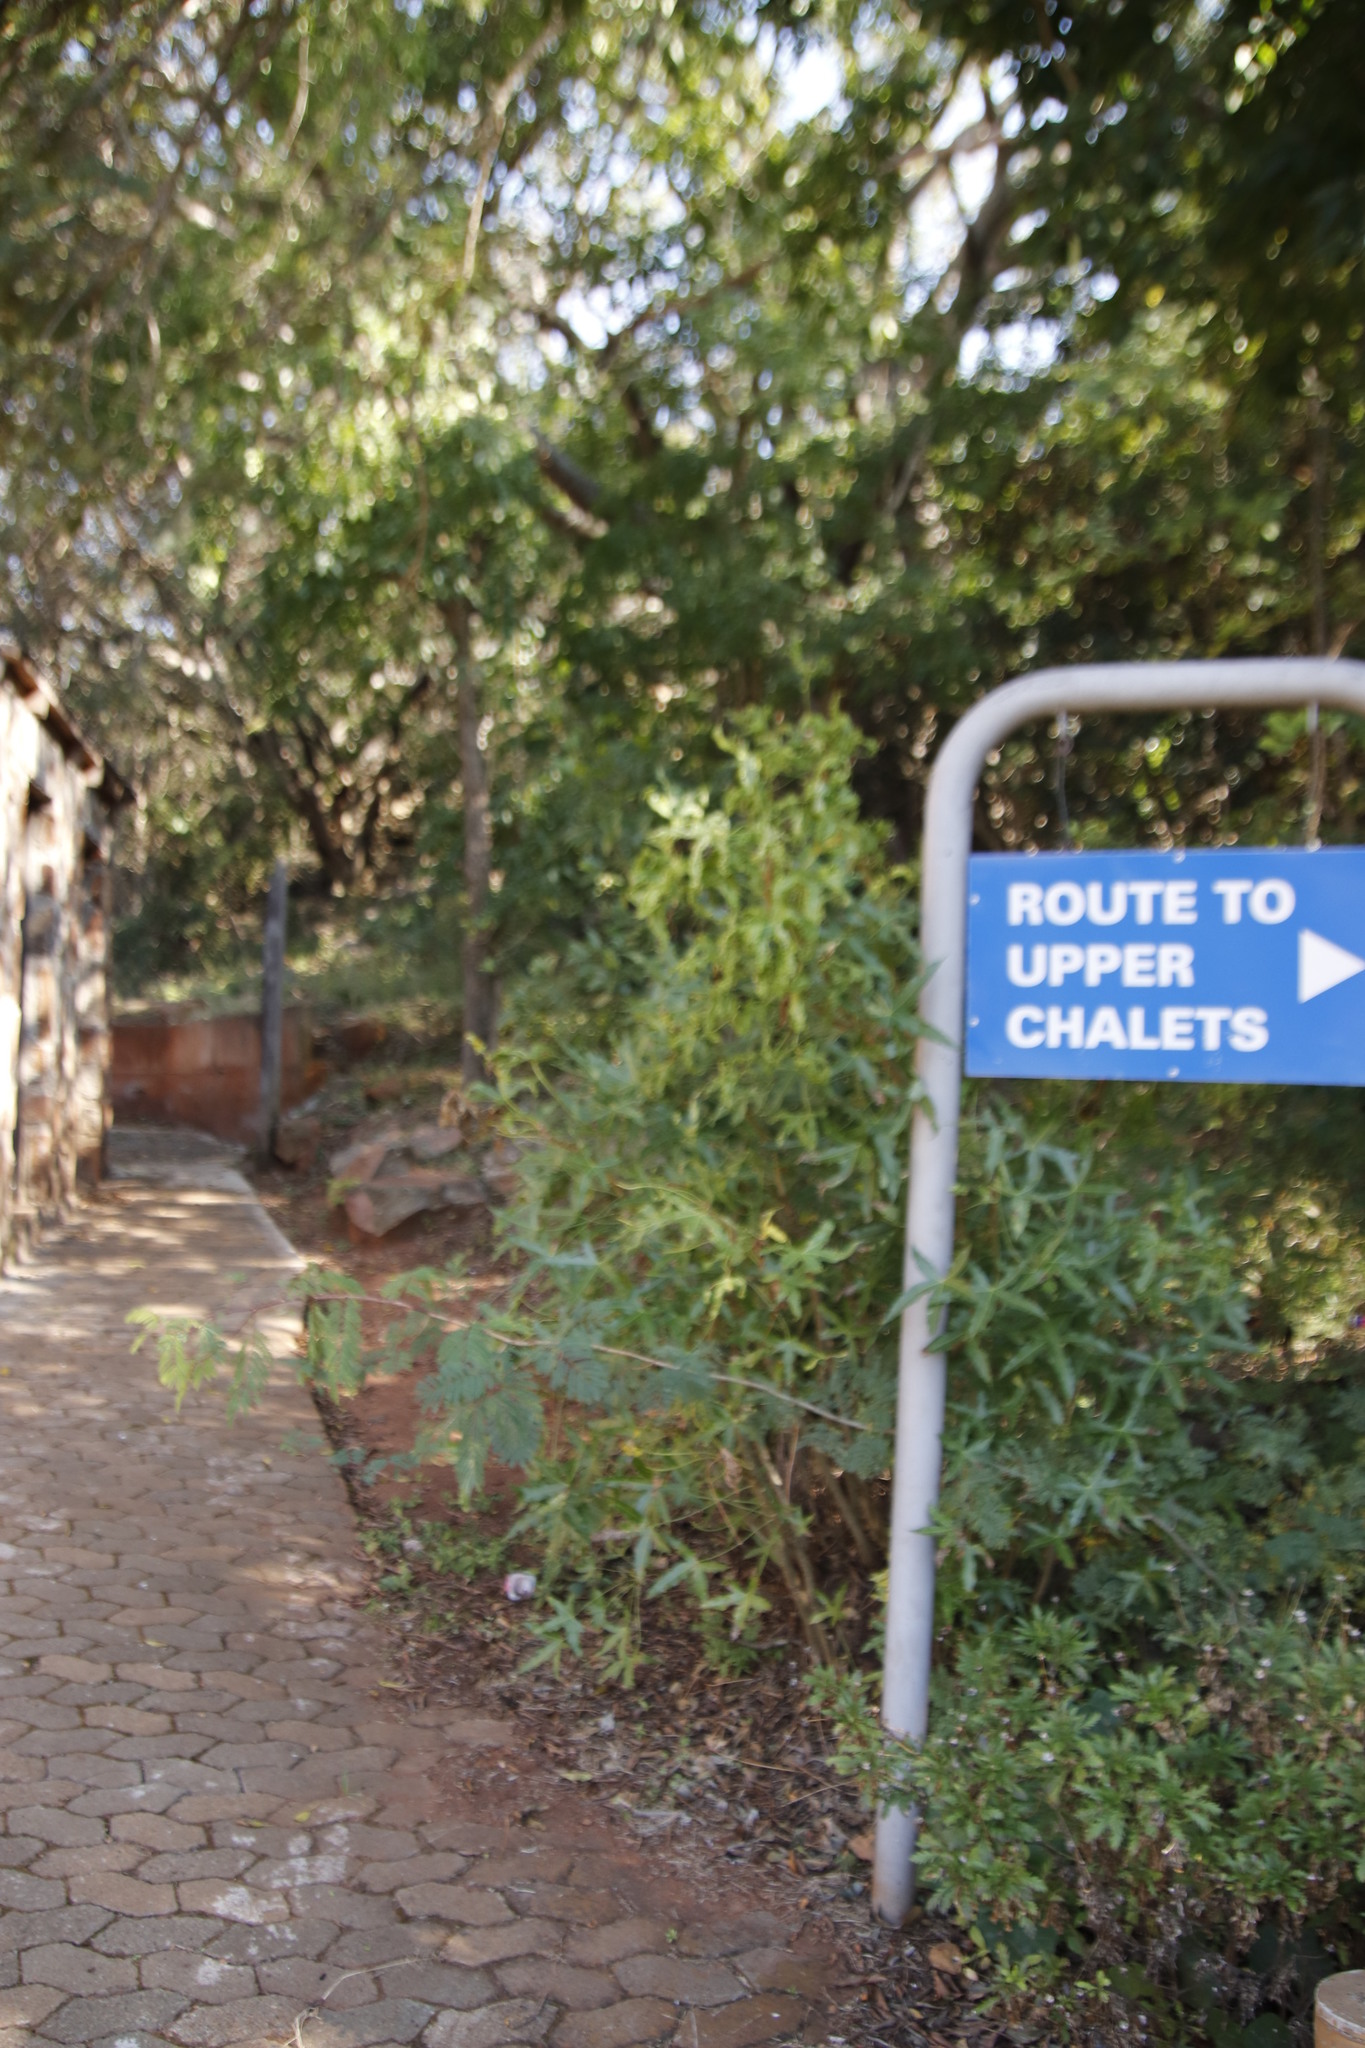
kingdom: Plantae
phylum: Tracheophyta
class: Magnoliopsida
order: Apiales
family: Araliaceae
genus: Cussonia
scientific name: Cussonia natalensis
